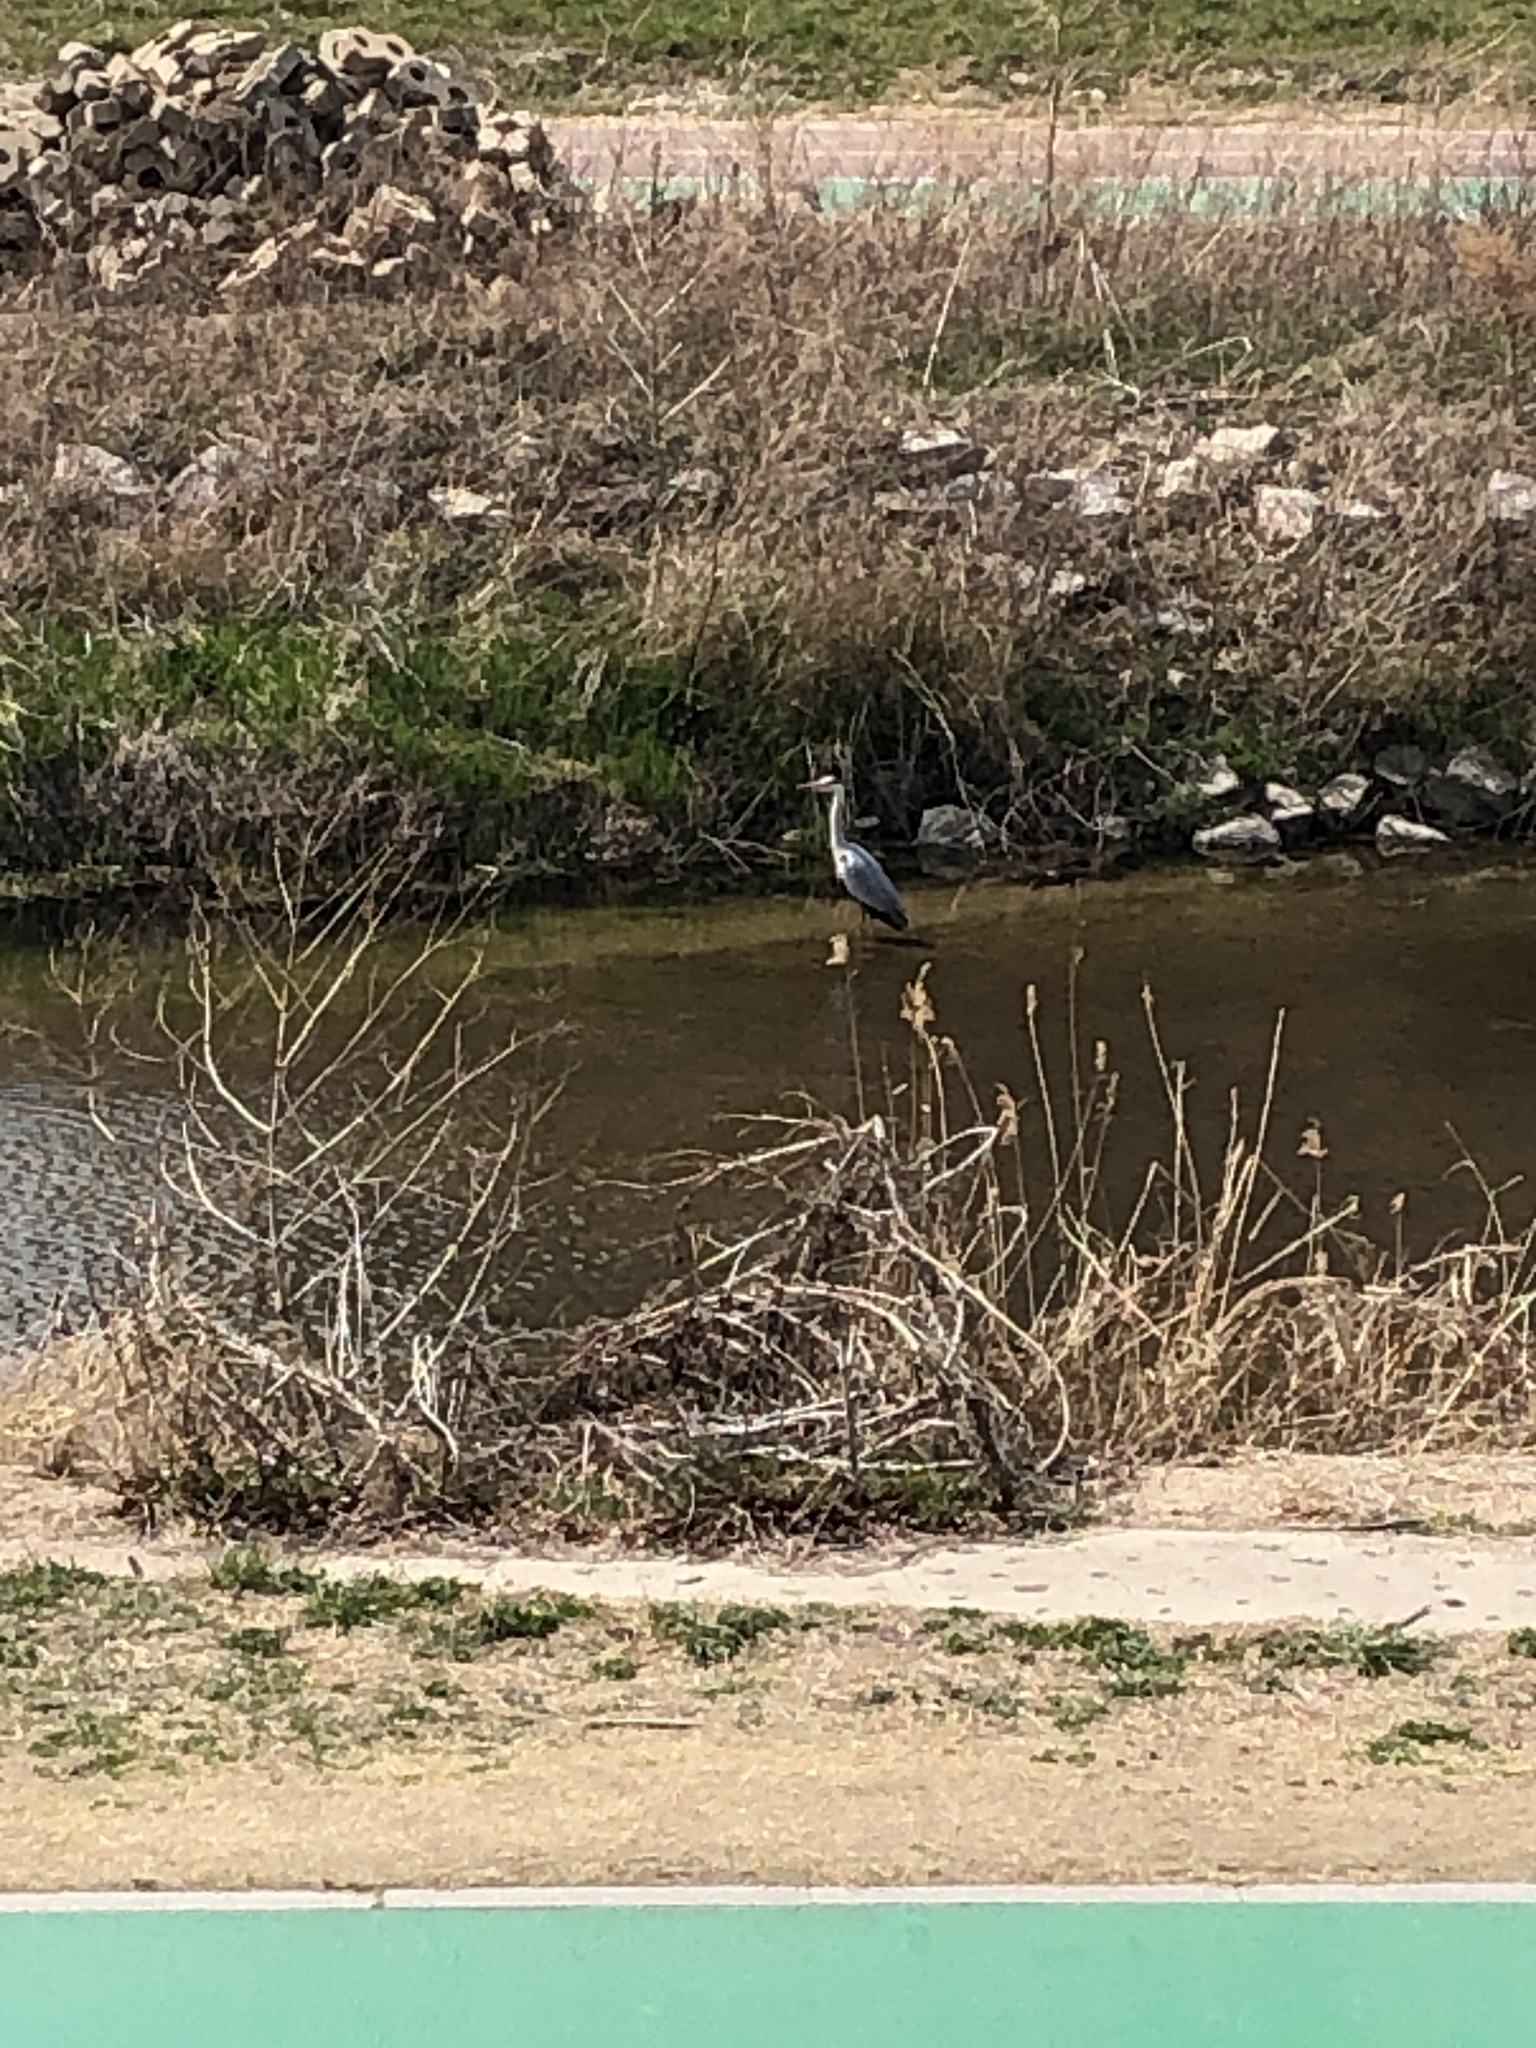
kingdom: Animalia
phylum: Chordata
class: Aves
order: Pelecaniformes
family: Ardeidae
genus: Ardea
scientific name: Ardea cinerea
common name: Grey heron
